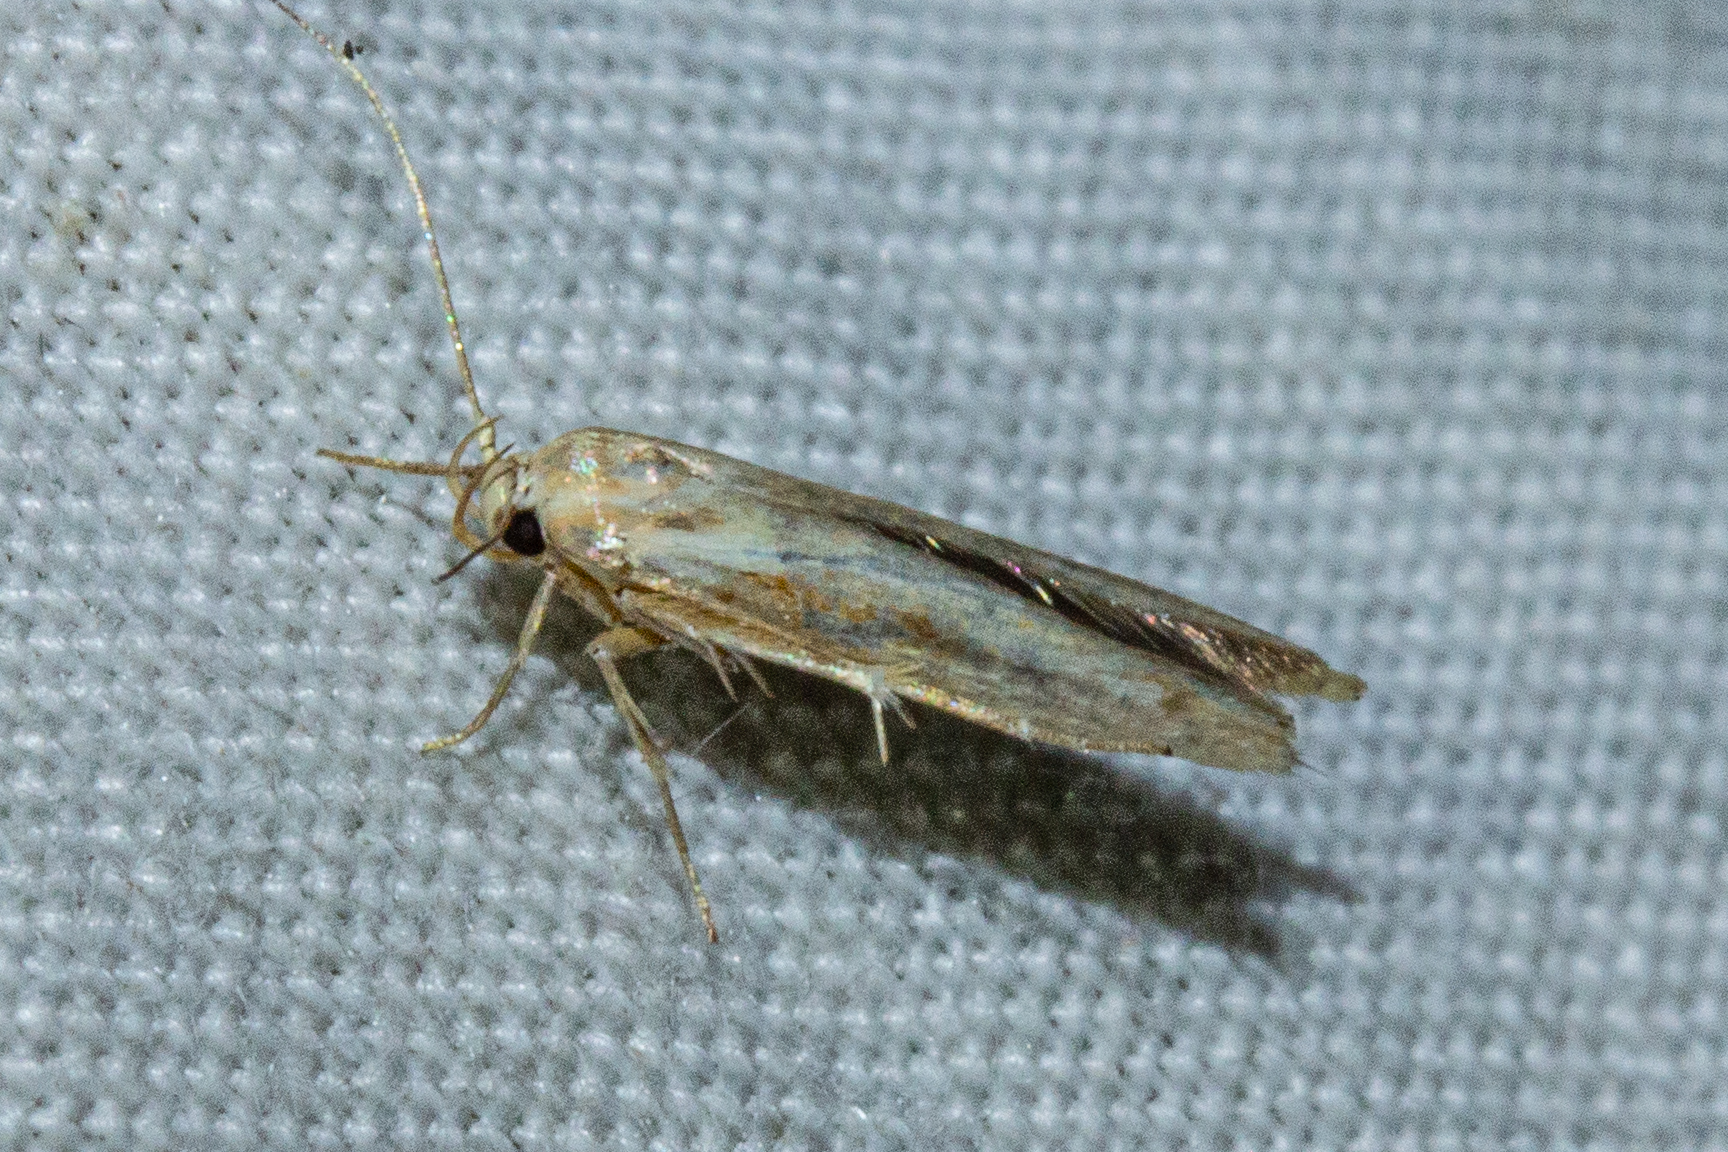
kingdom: Animalia
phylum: Arthropoda
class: Insecta
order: Lepidoptera
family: Stathmopodidae
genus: Stathmopoda
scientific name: Stathmopoda aposema
